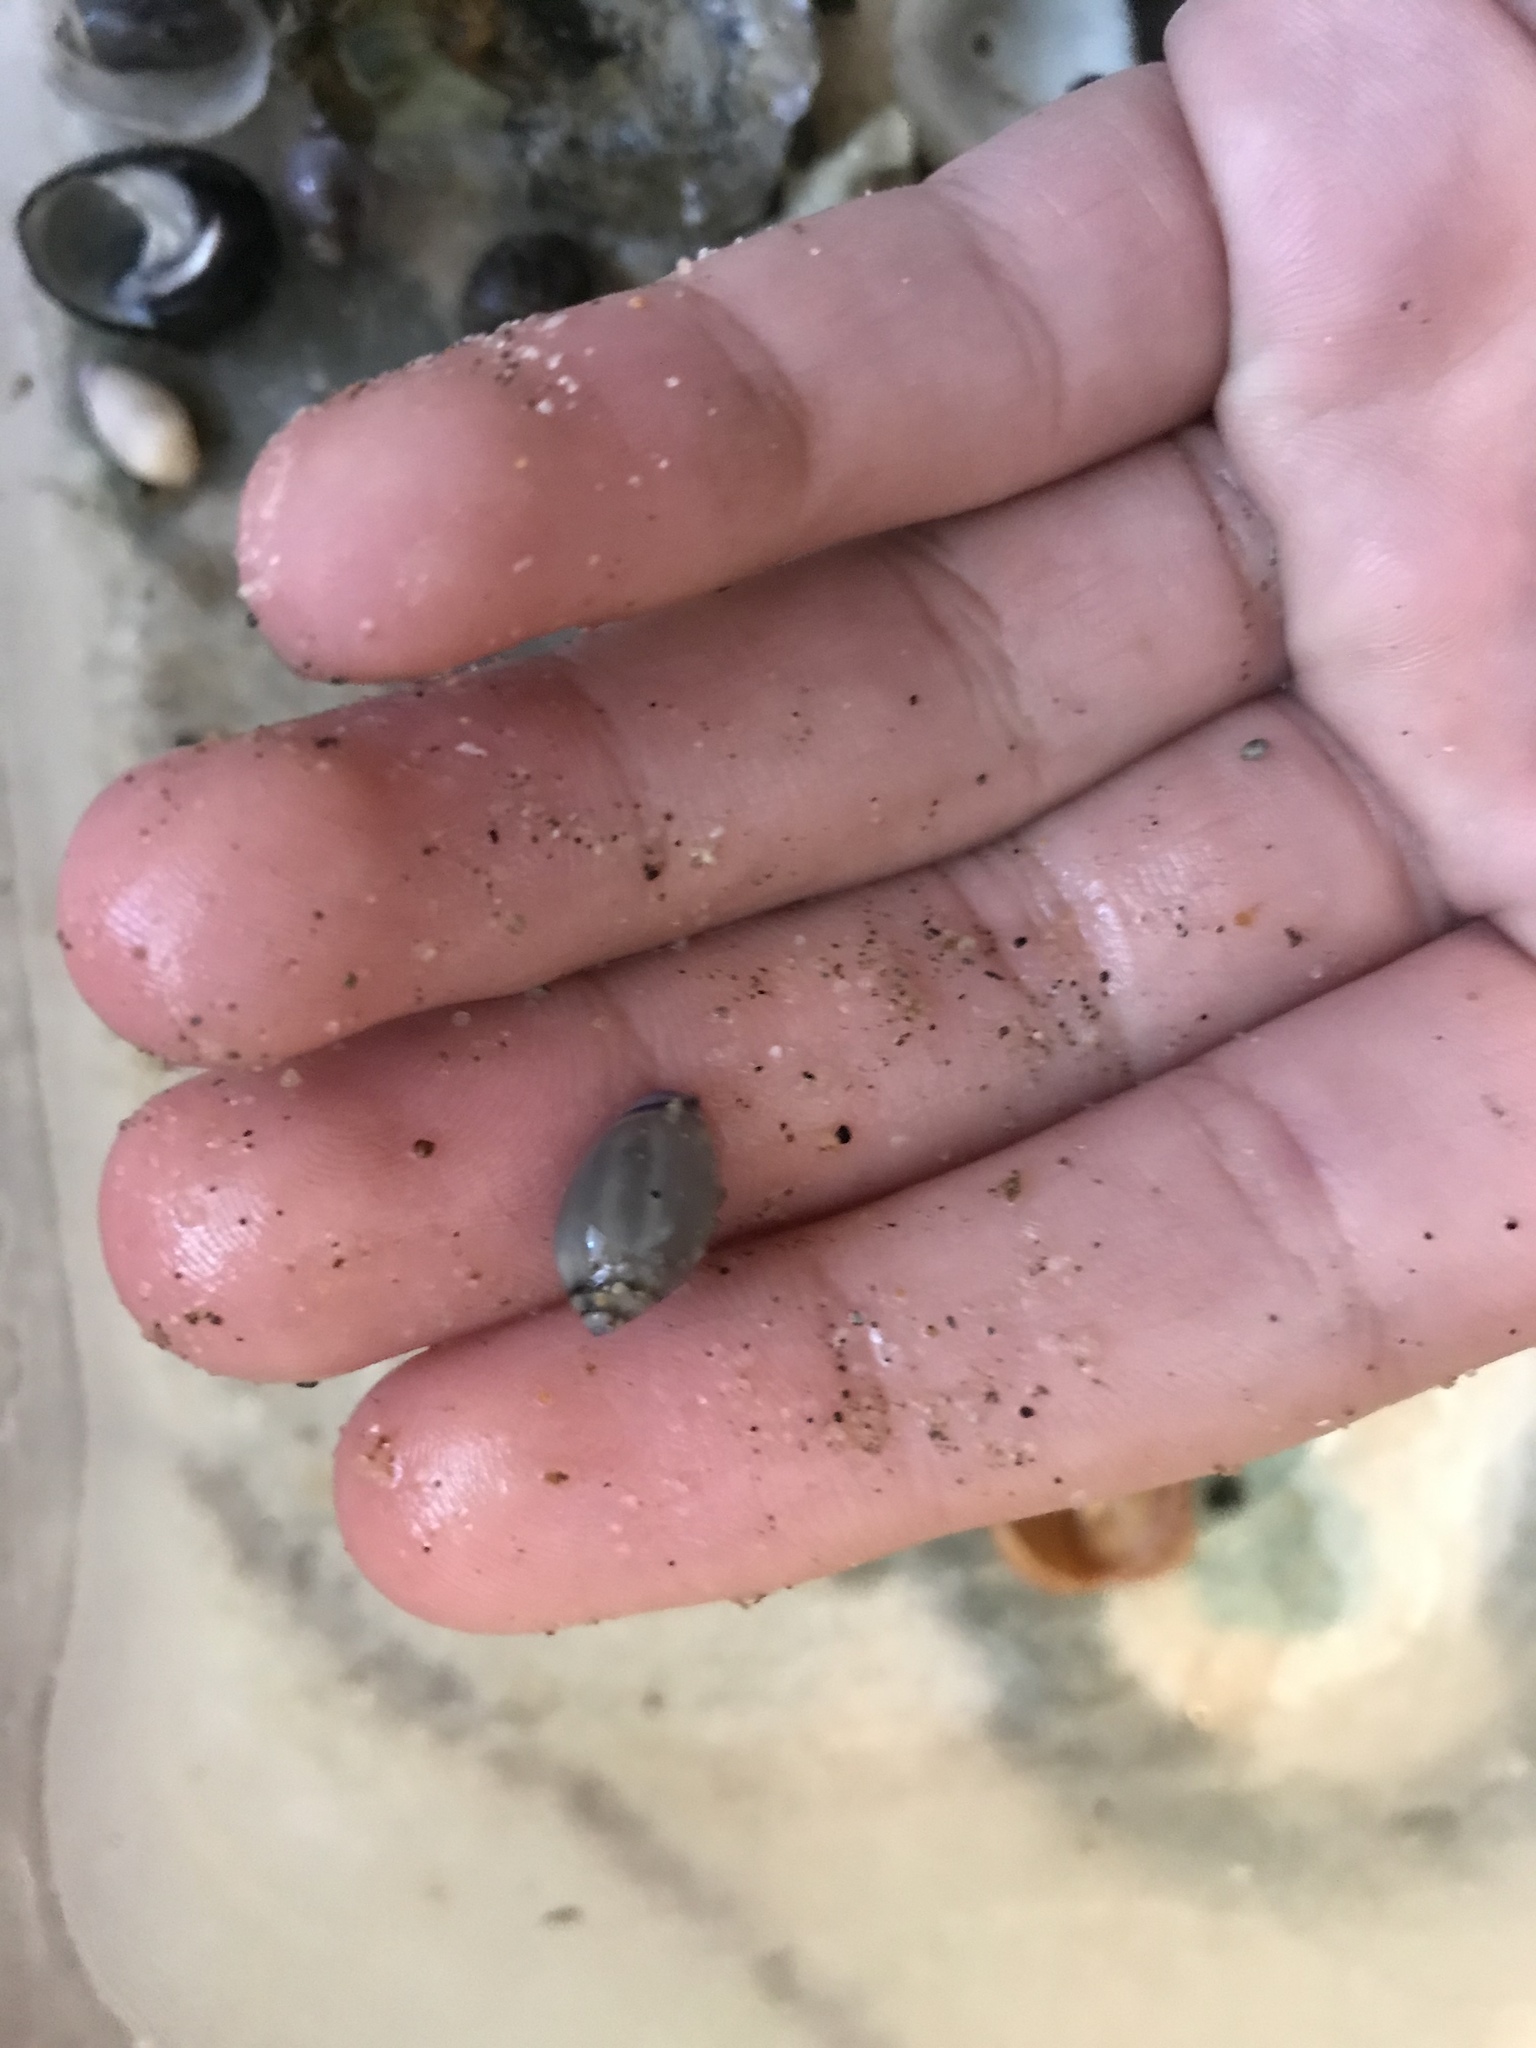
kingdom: Animalia
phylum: Mollusca
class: Gastropoda
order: Neogastropoda
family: Olividae
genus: Callianax
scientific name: Callianax biplicata
